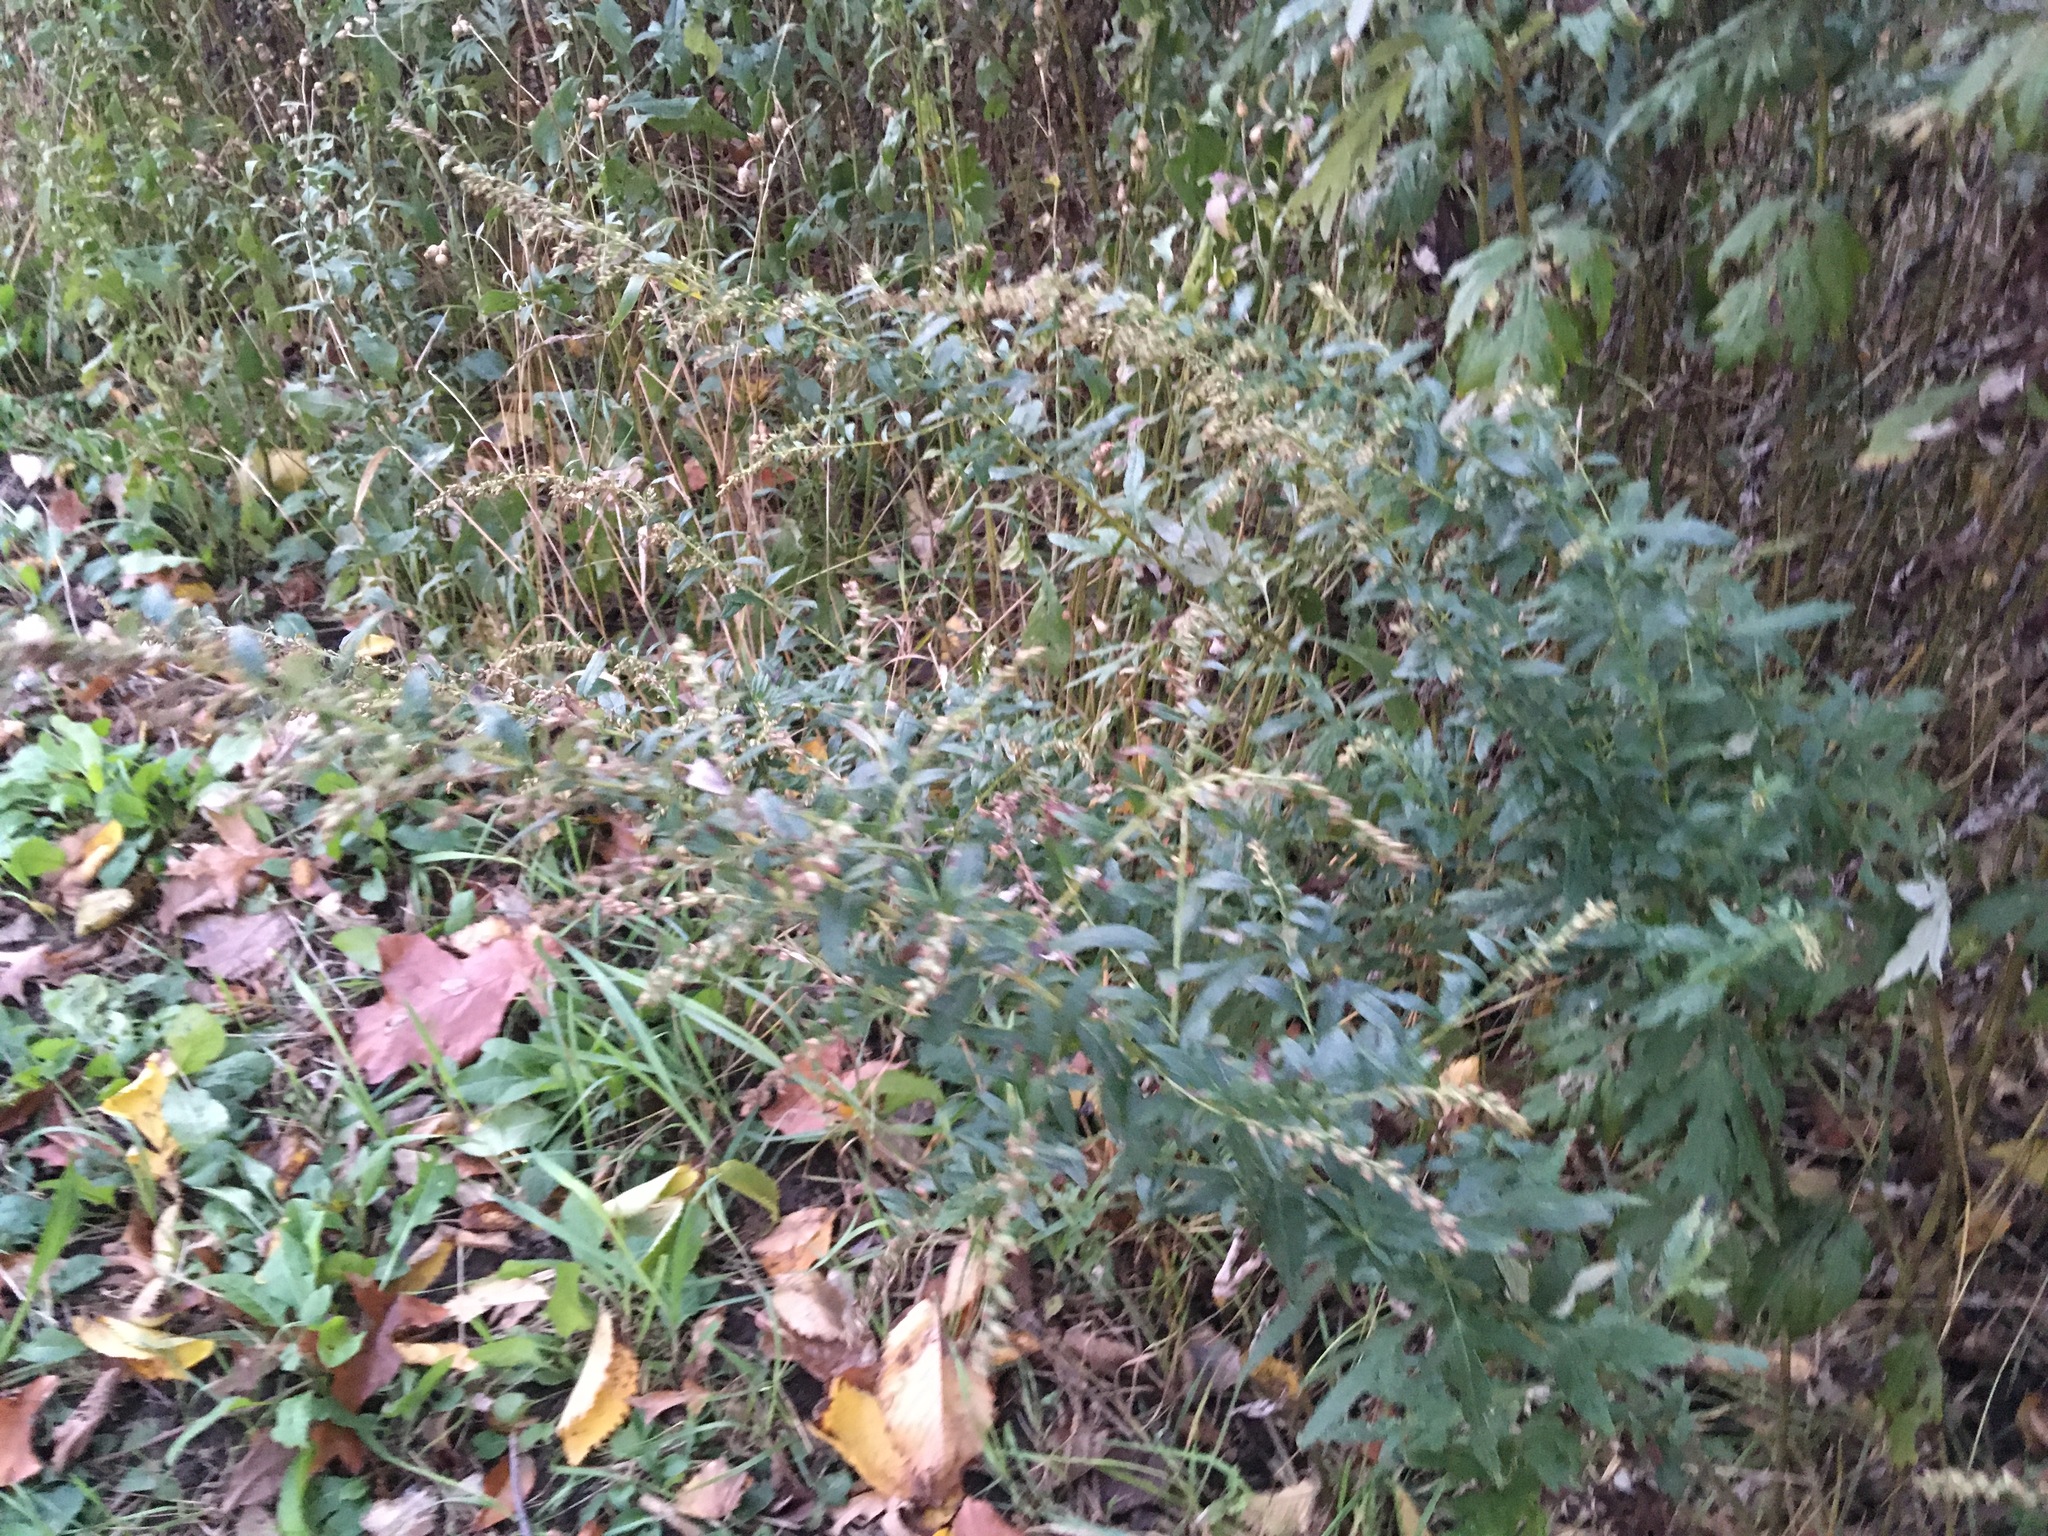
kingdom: Plantae
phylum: Tracheophyta
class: Magnoliopsida
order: Asterales
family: Asteraceae
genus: Artemisia
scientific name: Artemisia vulgaris
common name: Mugwort
